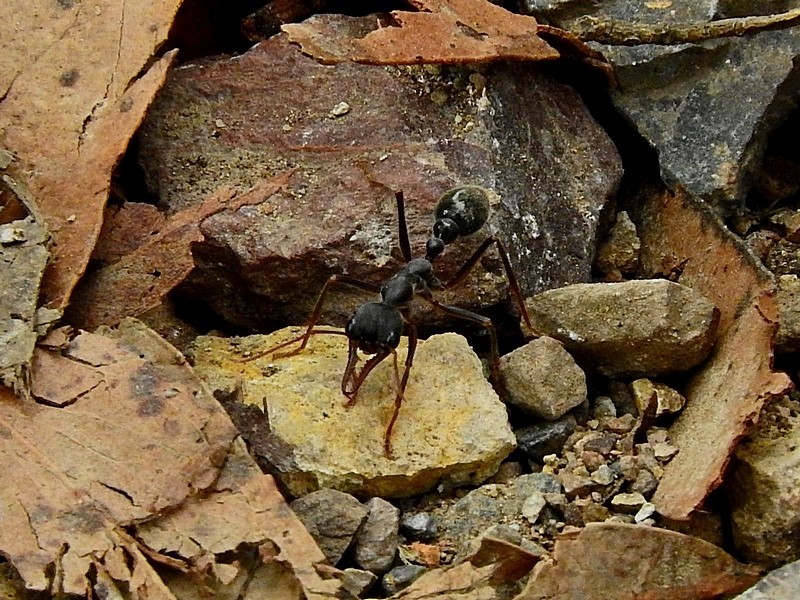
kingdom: Animalia
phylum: Arthropoda
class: Insecta
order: Hymenoptera
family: Formicidae
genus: Myrmecia
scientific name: Myrmecia pyriformis
